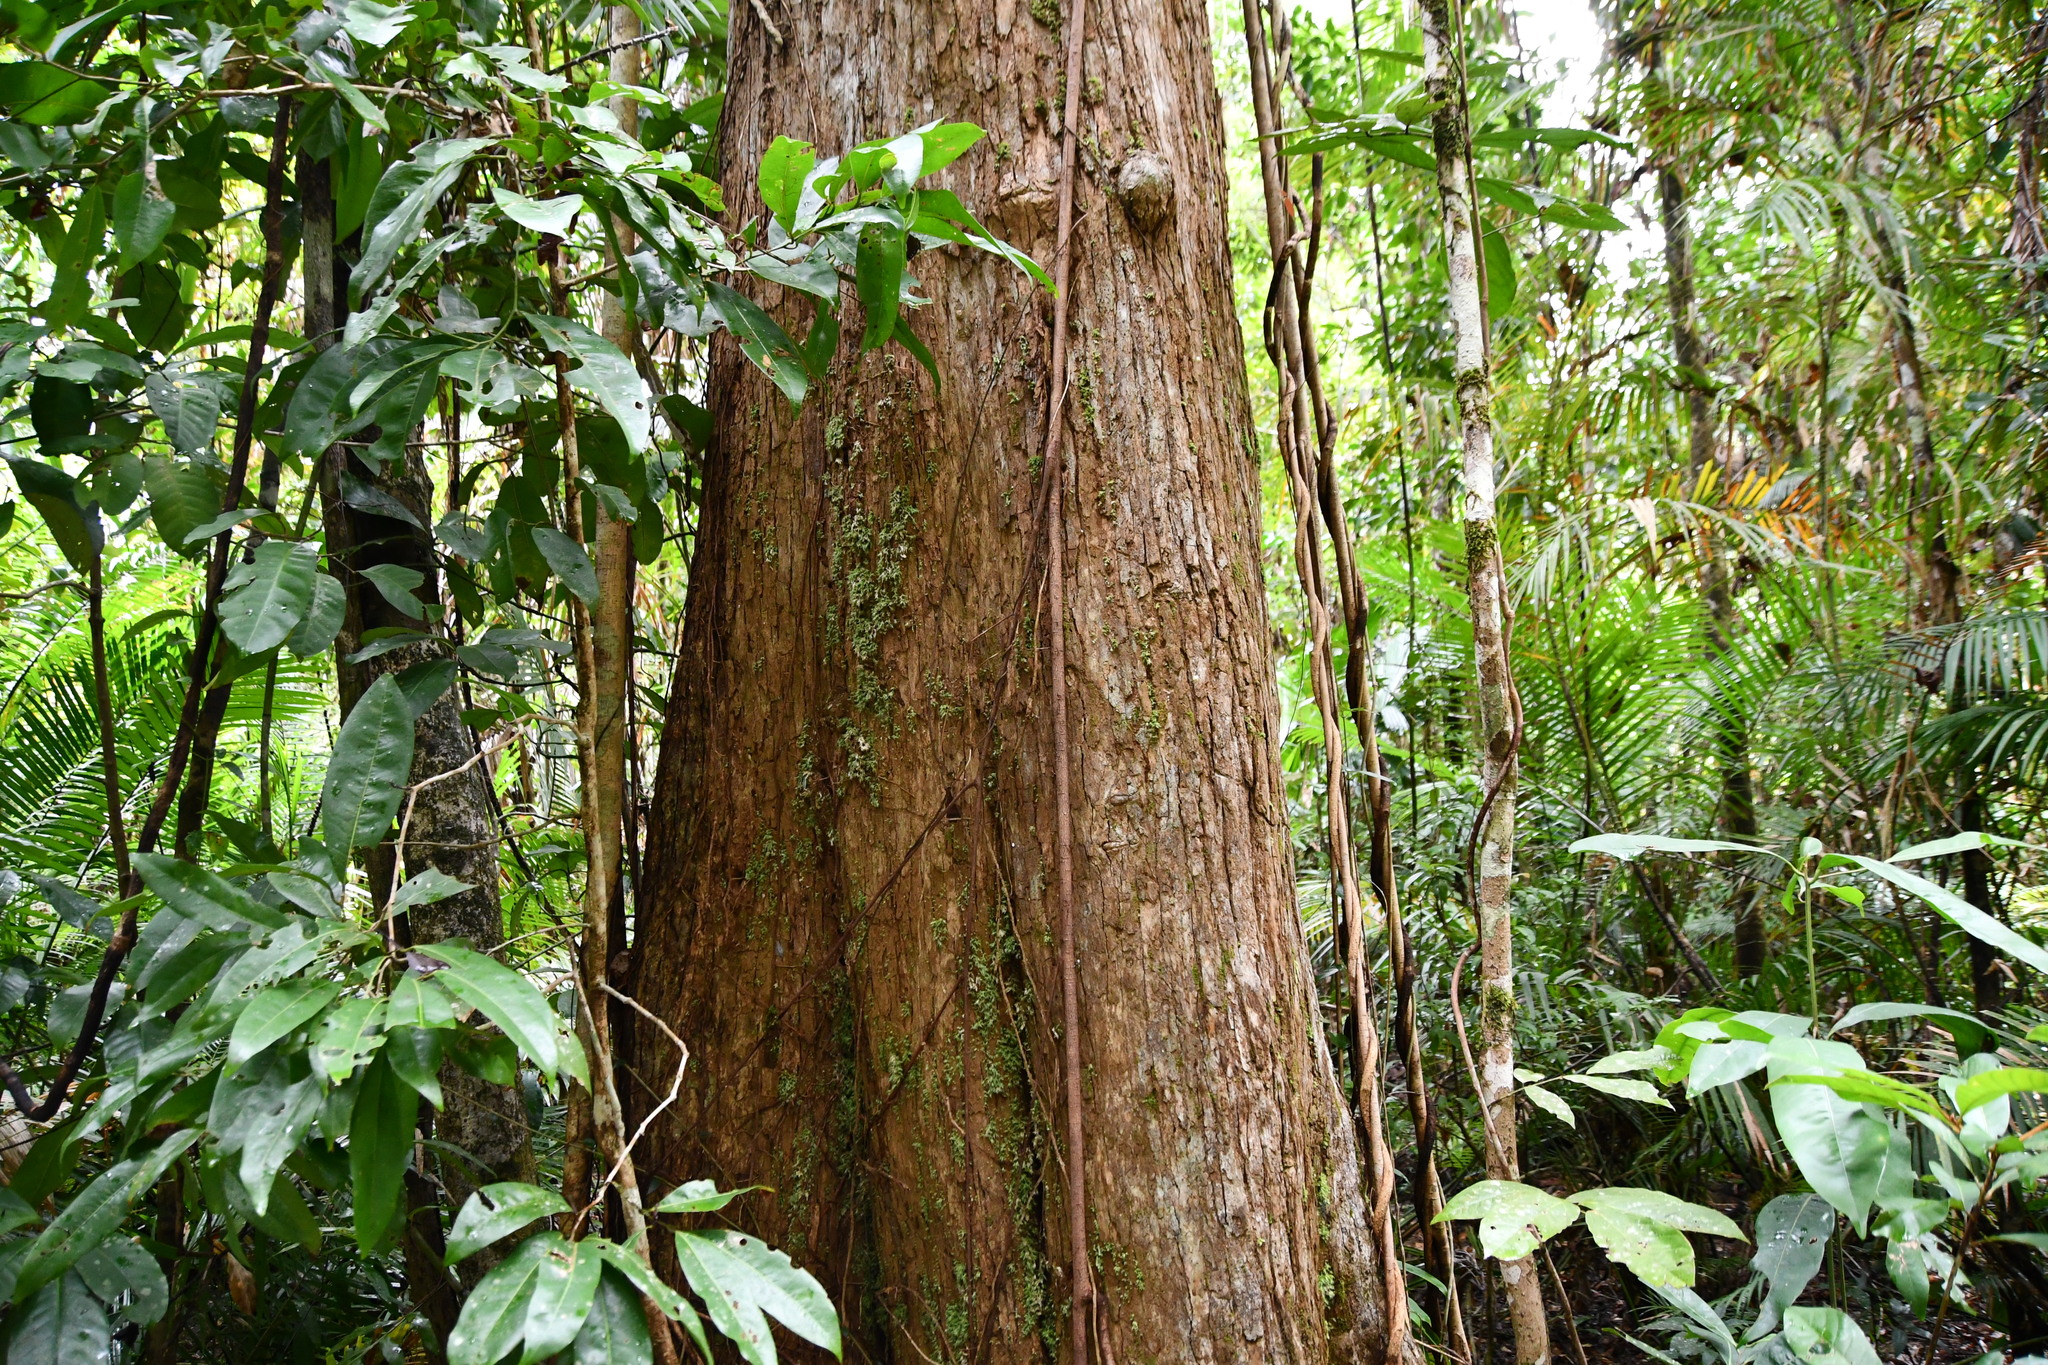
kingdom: Plantae
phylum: Tracheophyta
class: Magnoliopsida
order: Myrtales
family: Myrtaceae
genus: Ristantia
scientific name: Ristantia pachysperma
